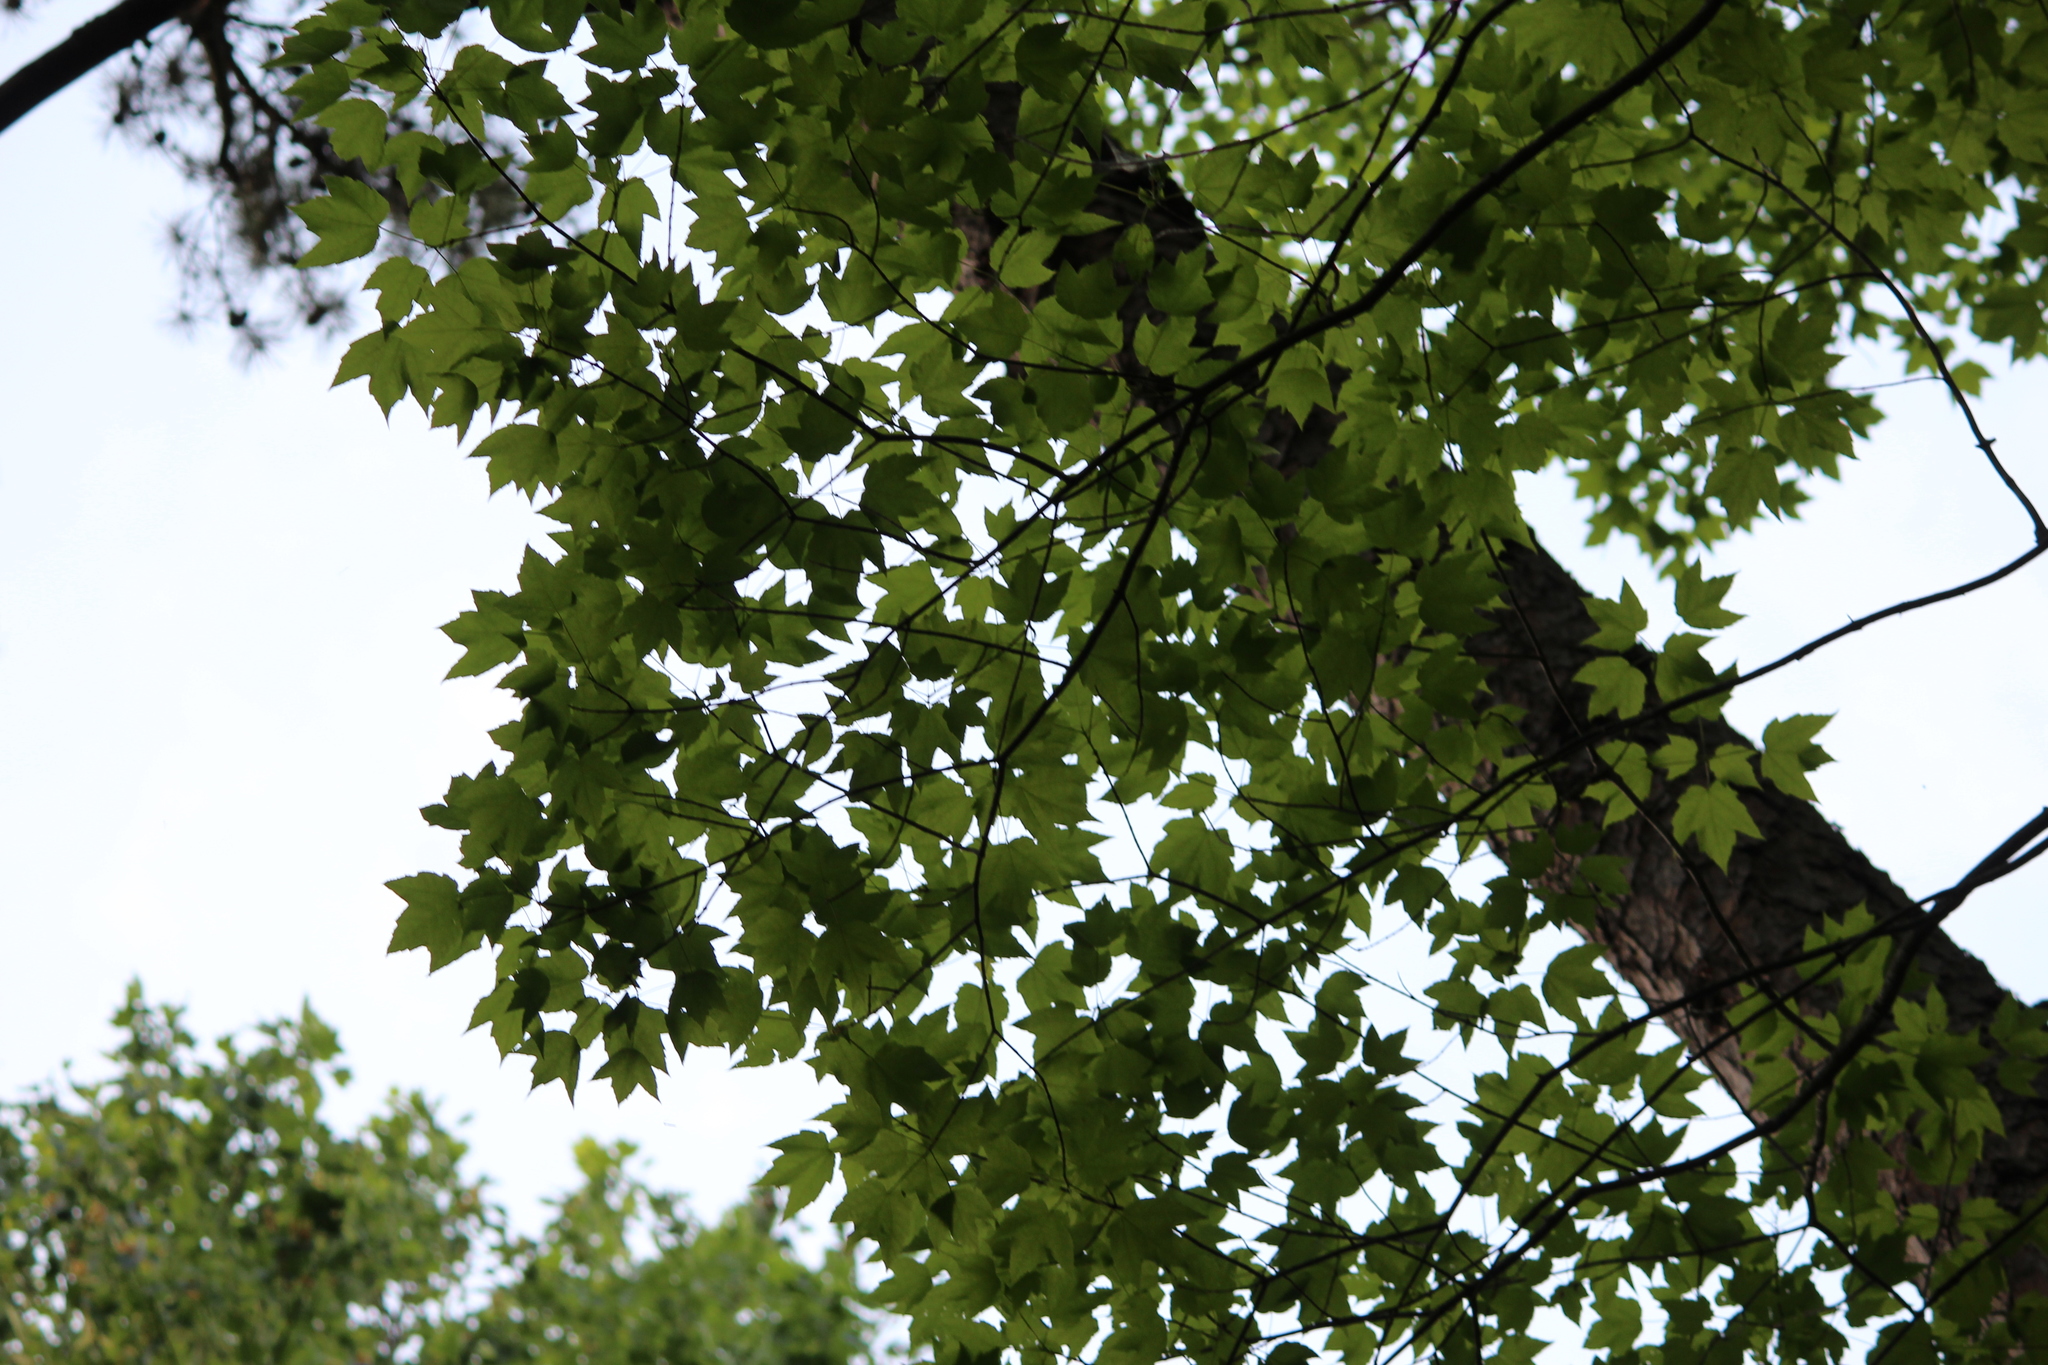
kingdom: Plantae
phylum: Tracheophyta
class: Magnoliopsida
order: Sapindales
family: Sapindaceae
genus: Acer
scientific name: Acer rubrum
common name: Red maple
